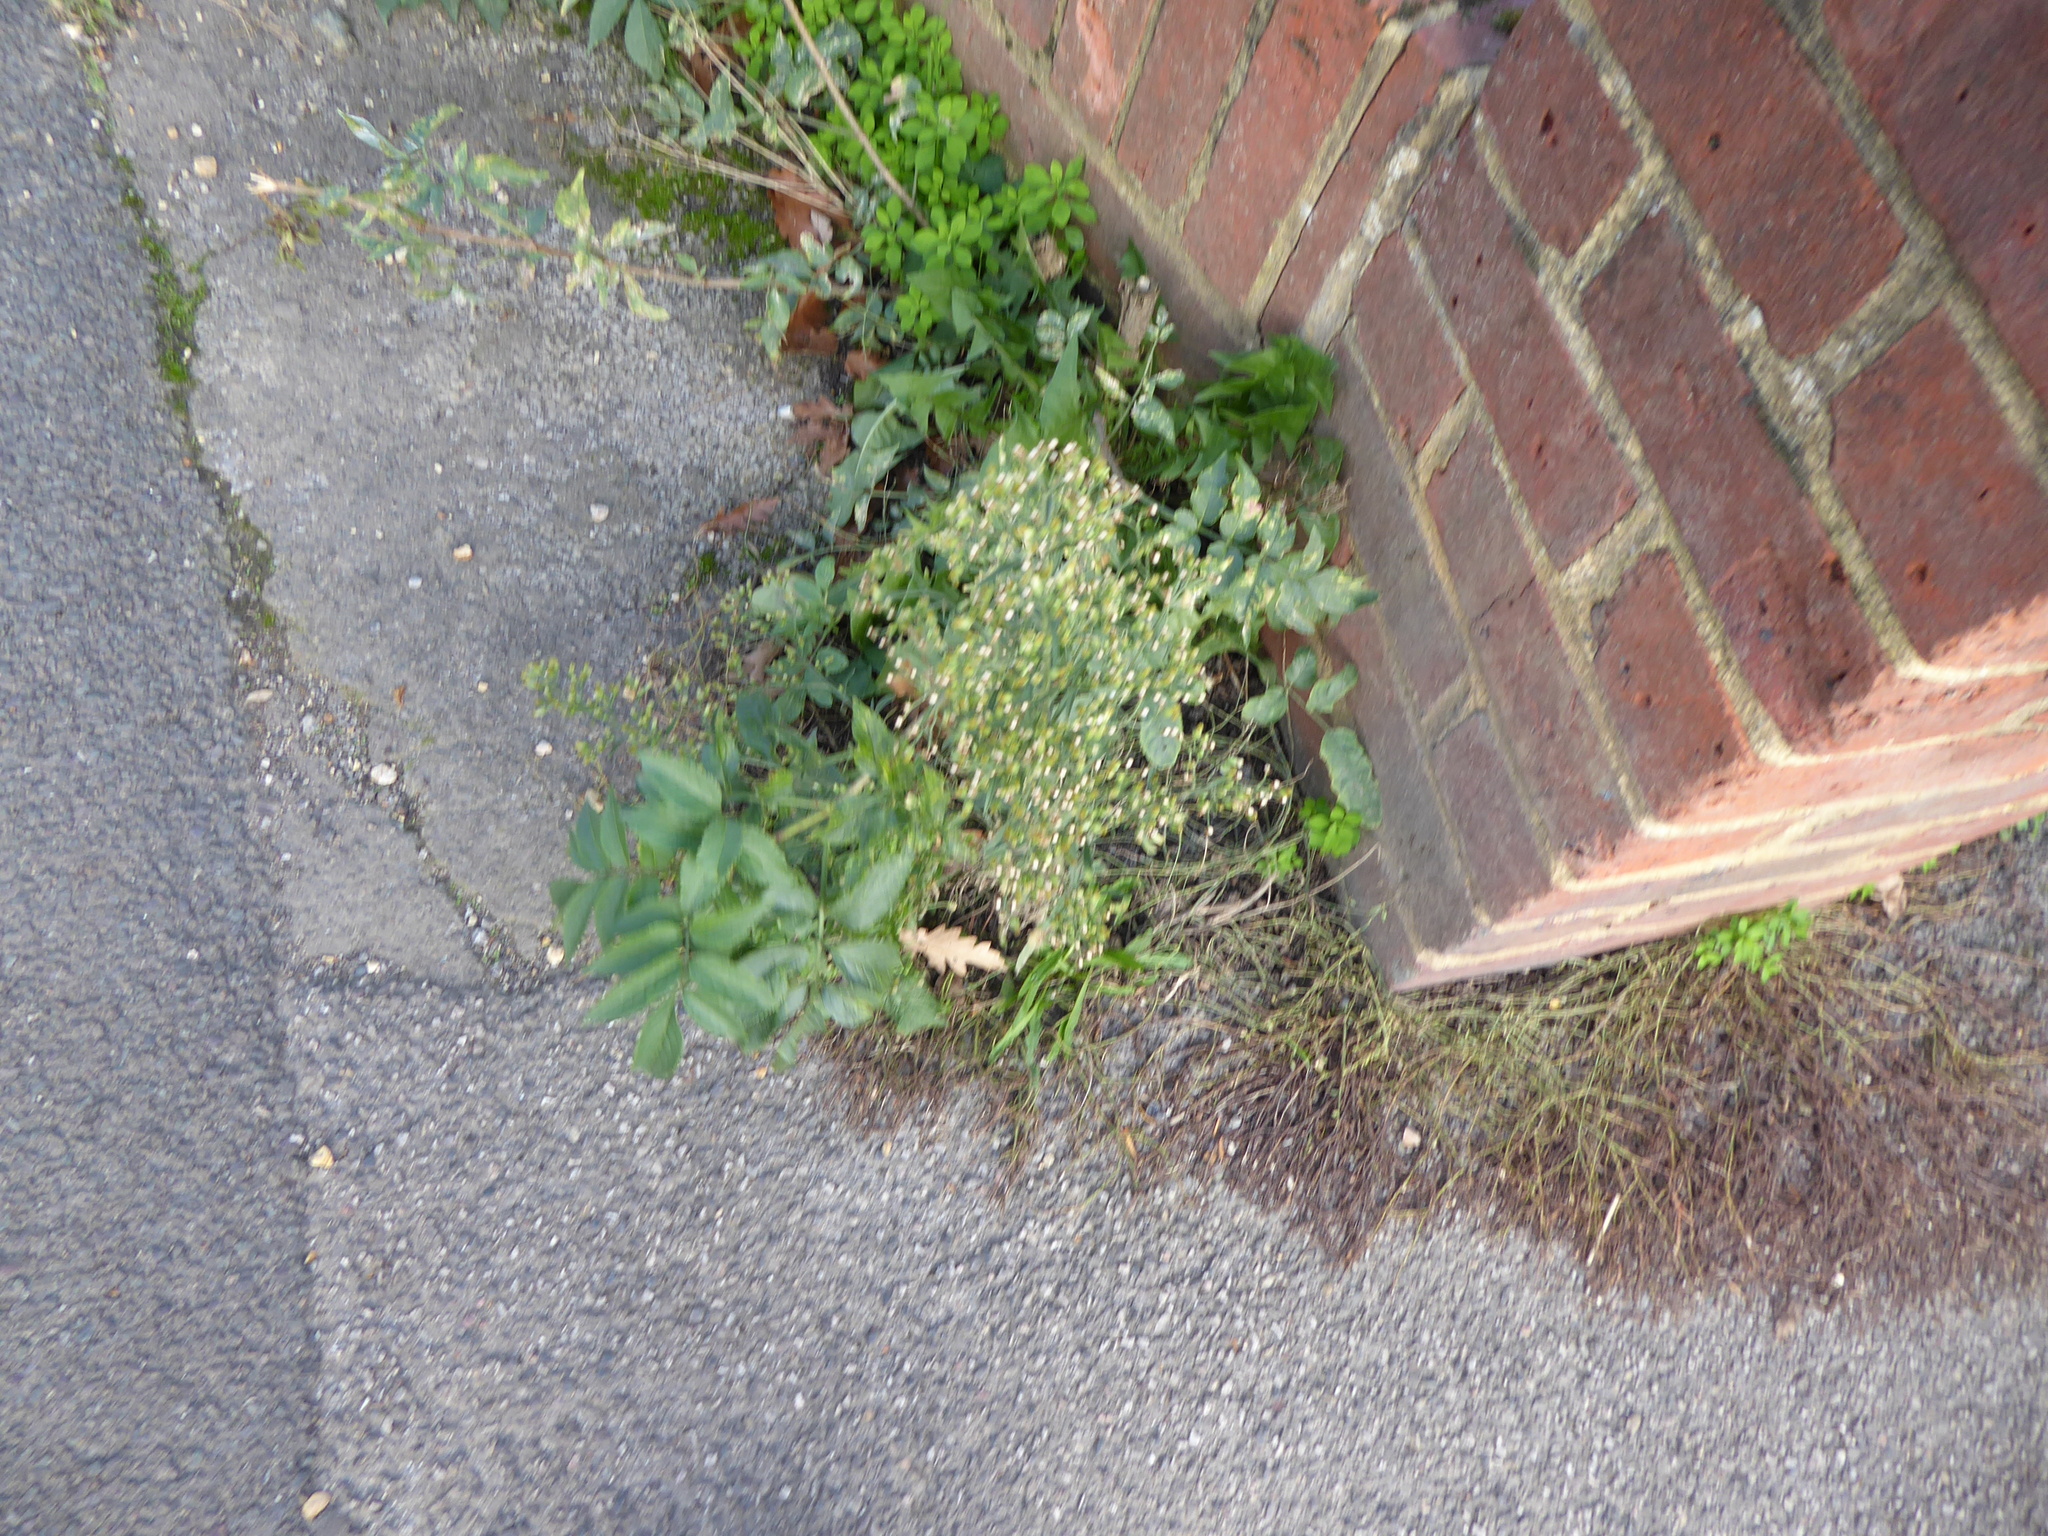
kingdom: Plantae
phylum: Tracheophyta
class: Magnoliopsida
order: Asterales
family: Asteraceae
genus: Erigeron
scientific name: Erigeron sumatrensis
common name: Daisy
